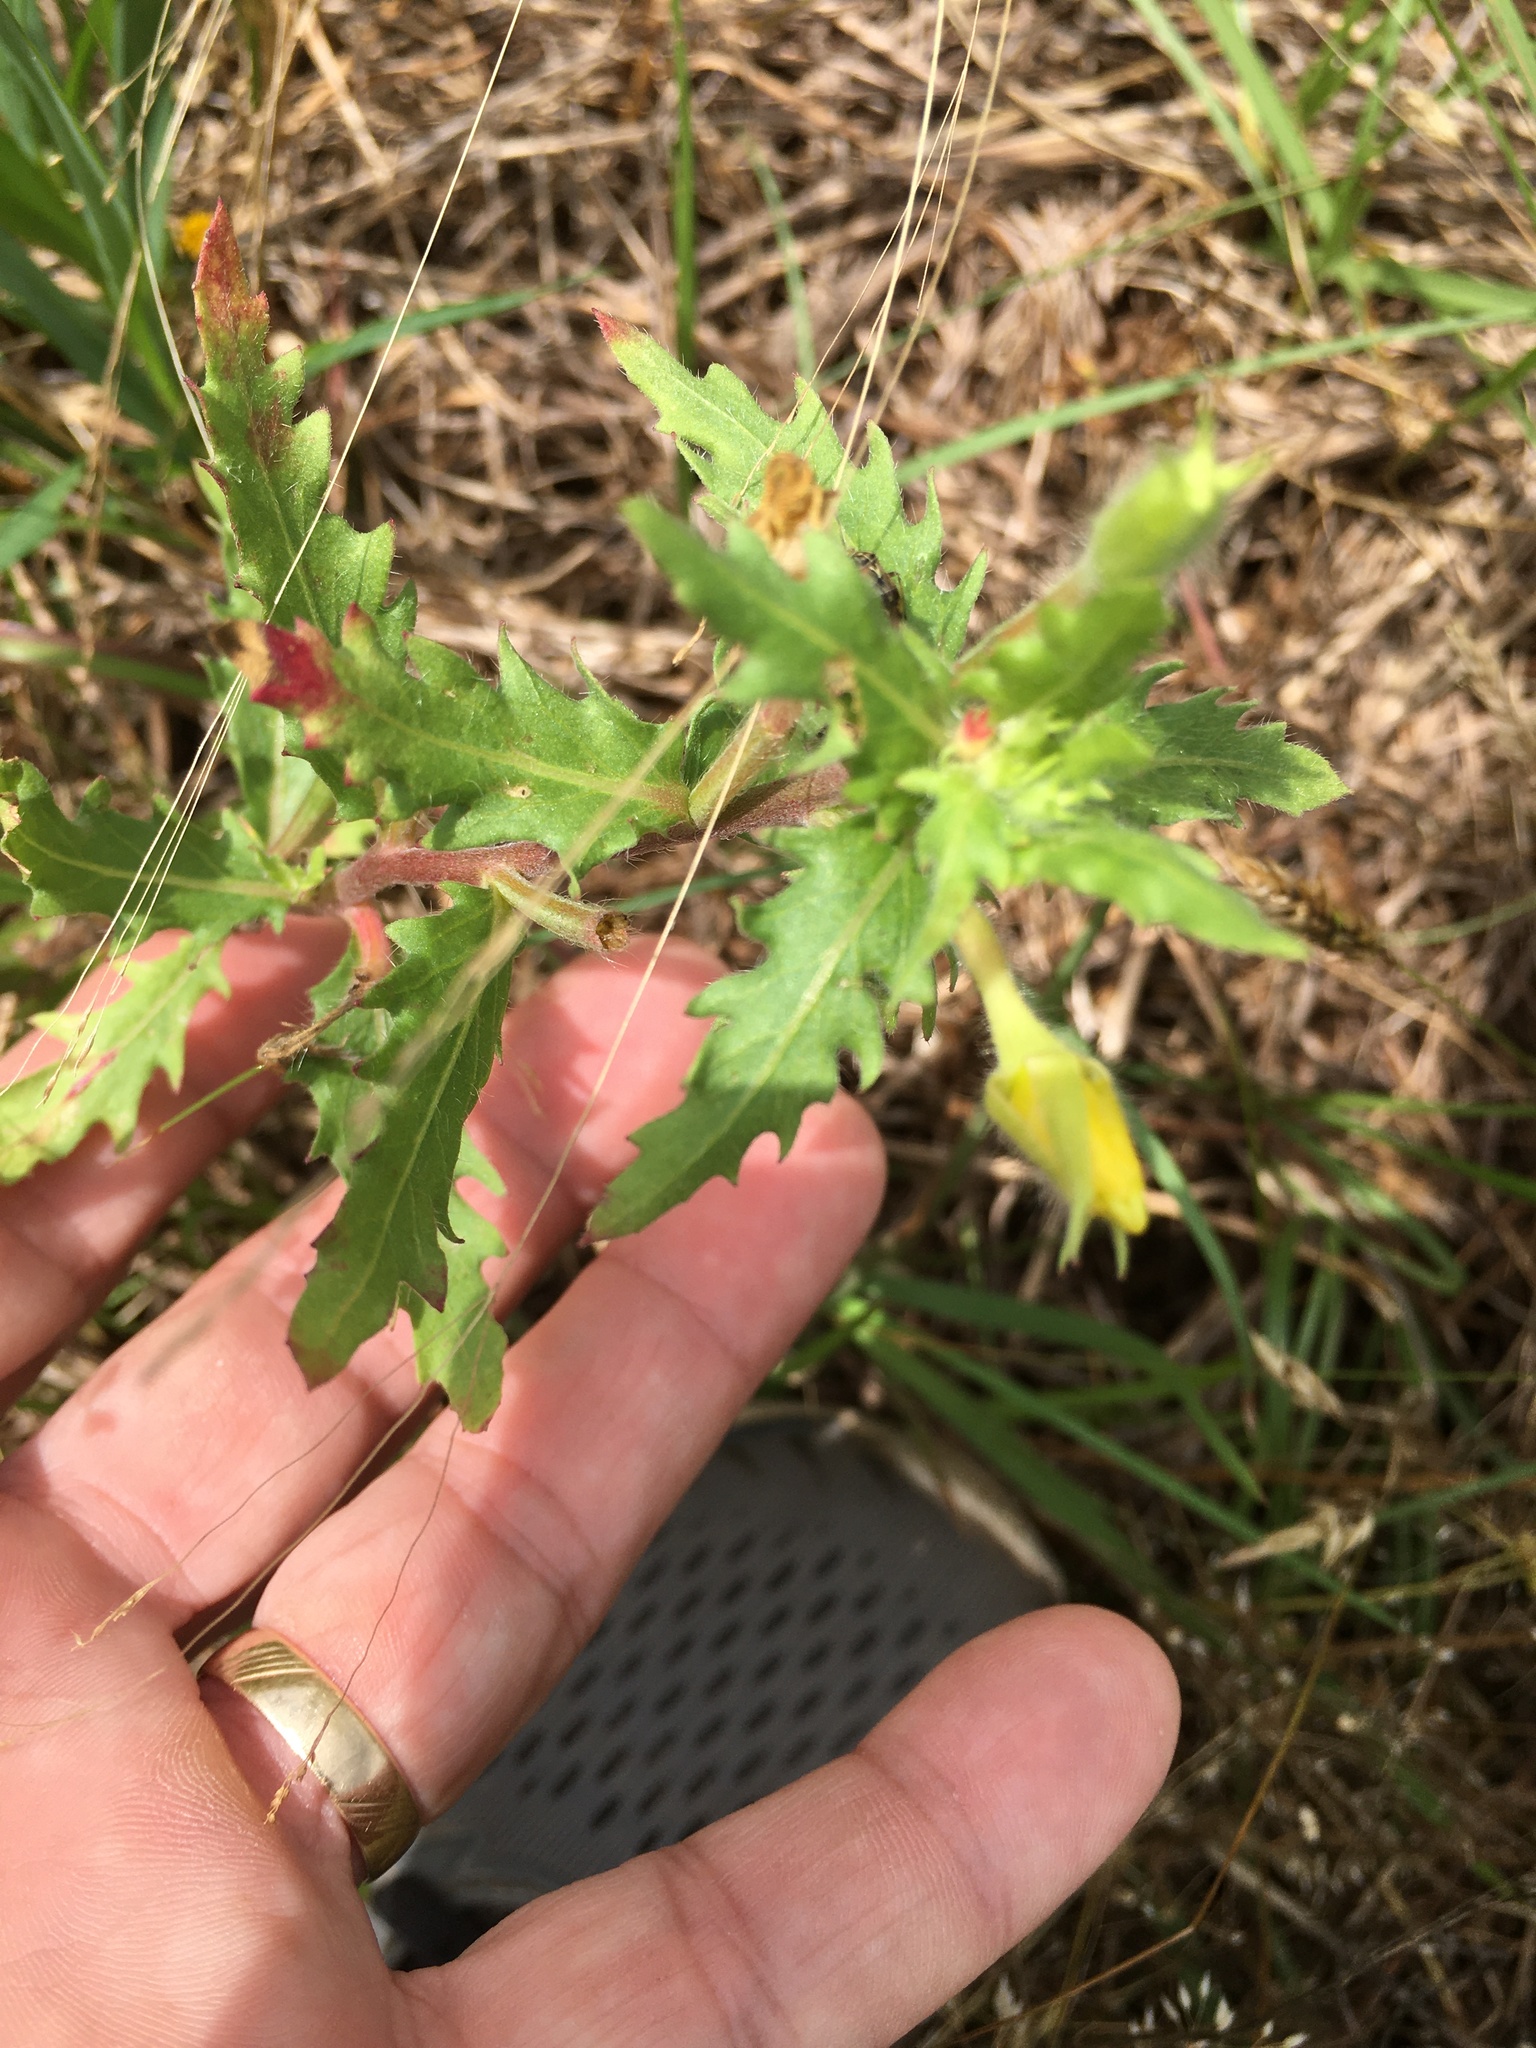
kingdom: Plantae
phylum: Tracheophyta
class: Magnoliopsida
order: Myrtales
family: Onagraceae
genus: Oenothera
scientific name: Oenothera laciniata
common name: Cut-leaved evening-primrose
